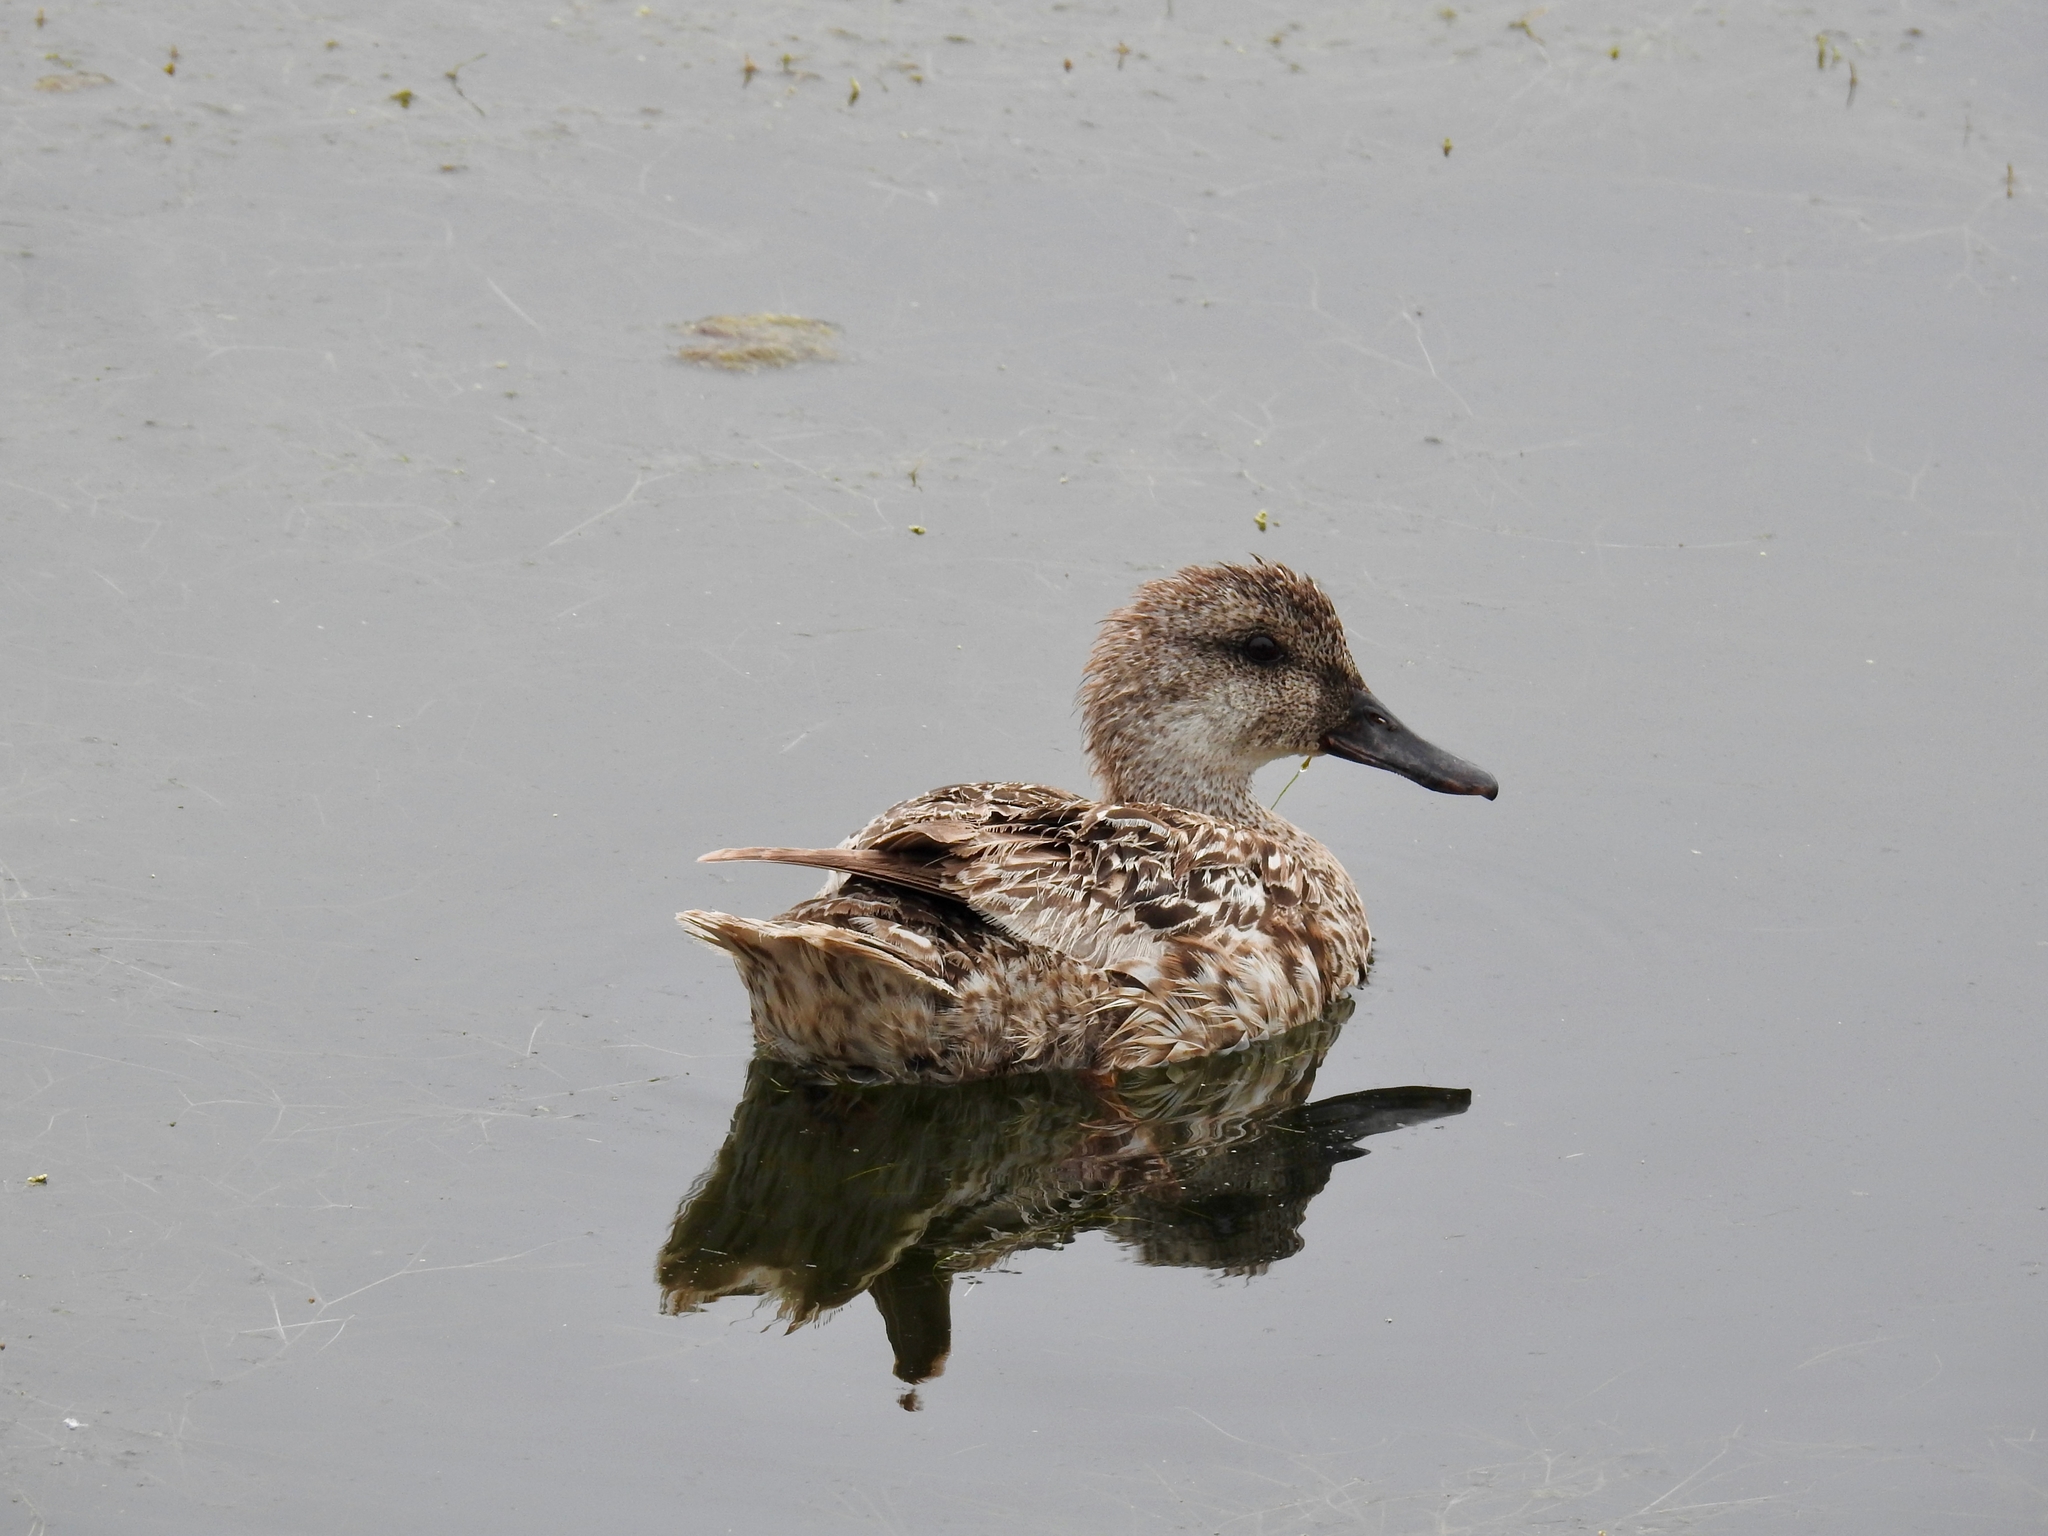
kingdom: Animalia
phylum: Chordata
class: Aves
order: Anseriformes
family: Anatidae
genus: Mareca
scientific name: Mareca strepera
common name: Gadwall
